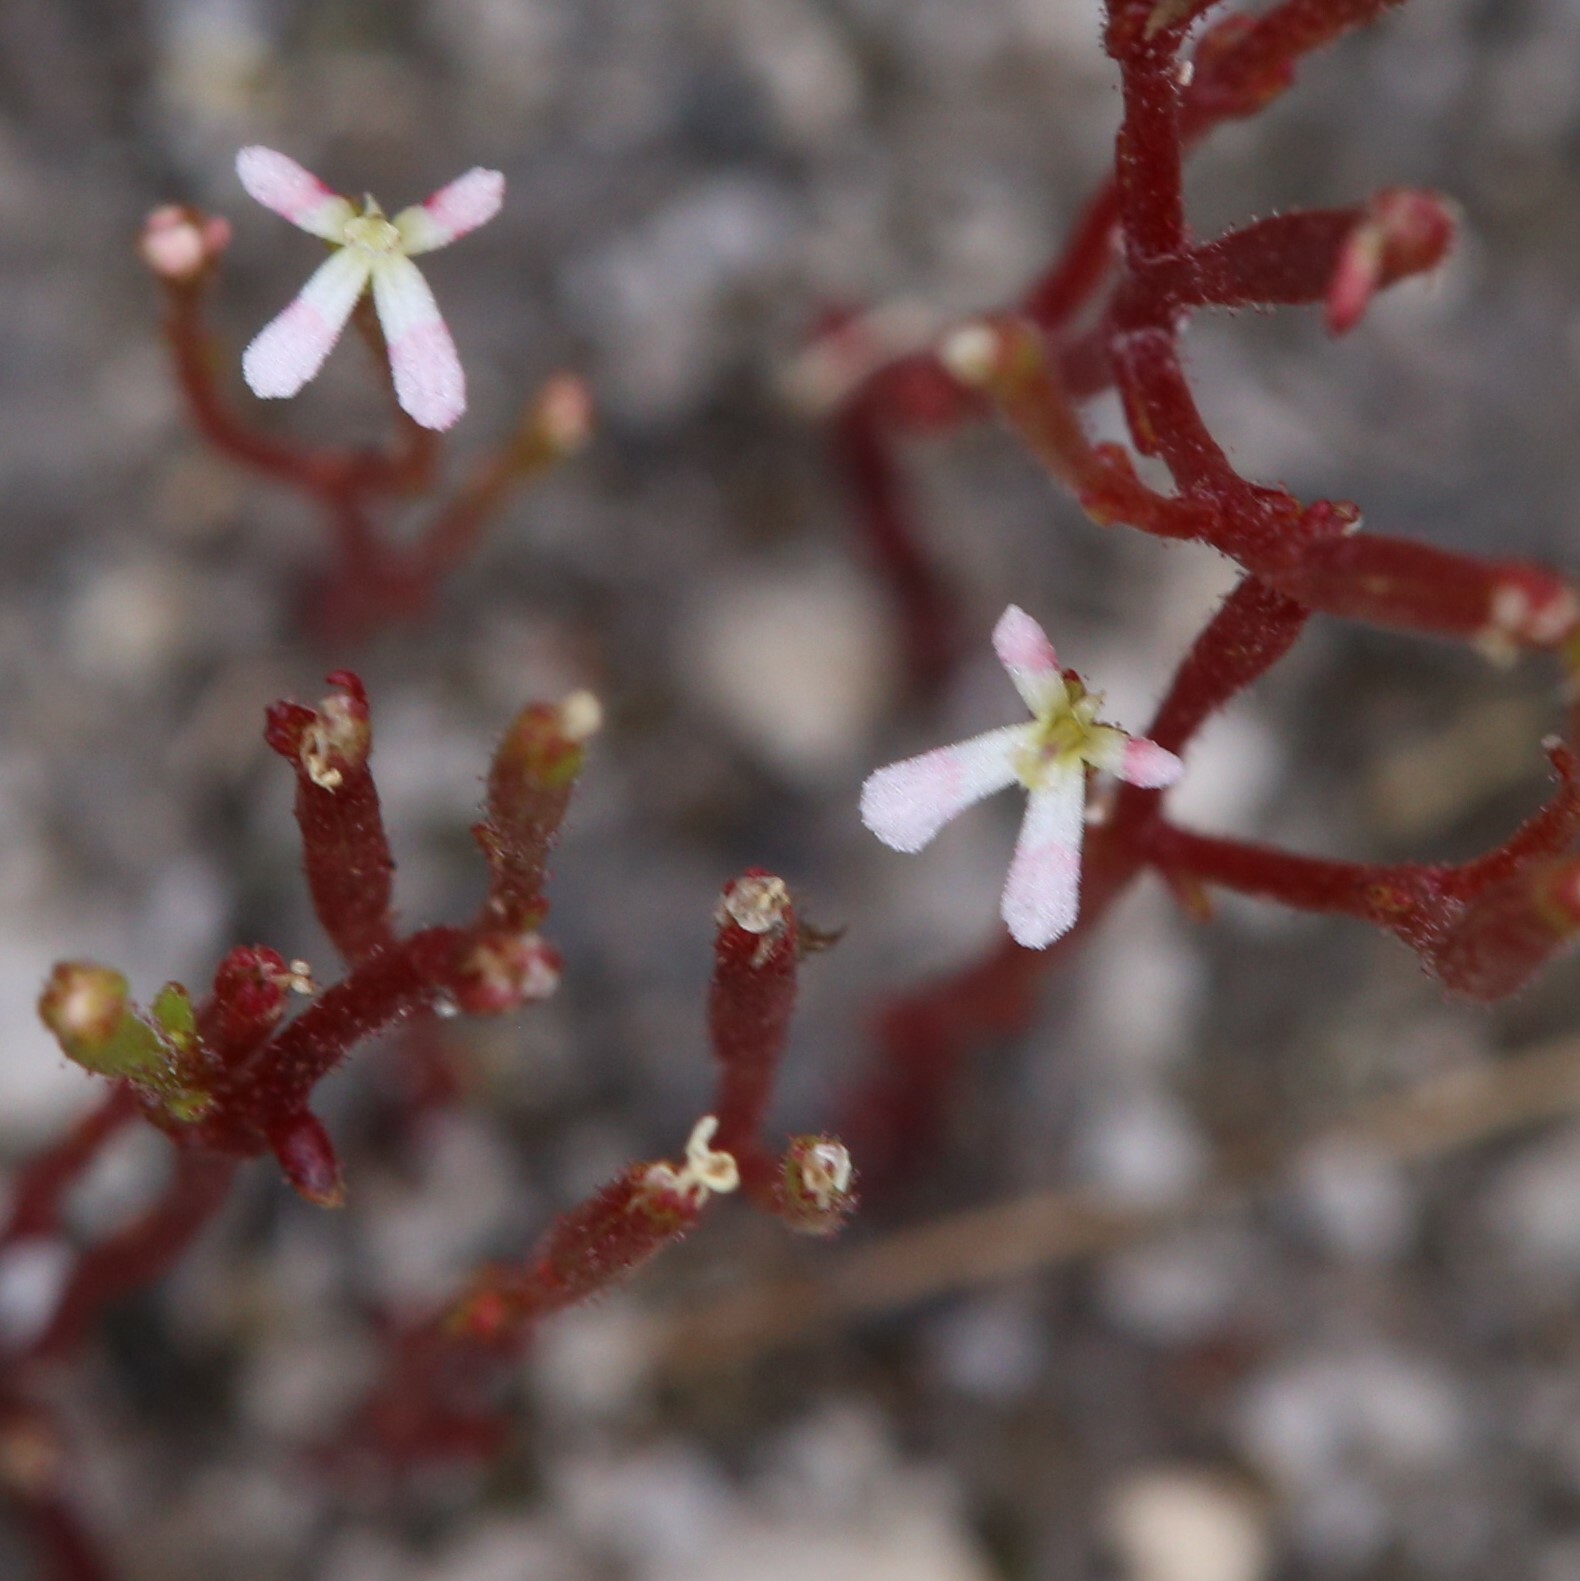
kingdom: Plantae
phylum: Tracheophyta
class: Magnoliopsida
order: Asterales
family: Stylidiaceae
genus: Stylidium
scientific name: Stylidium inundatum
